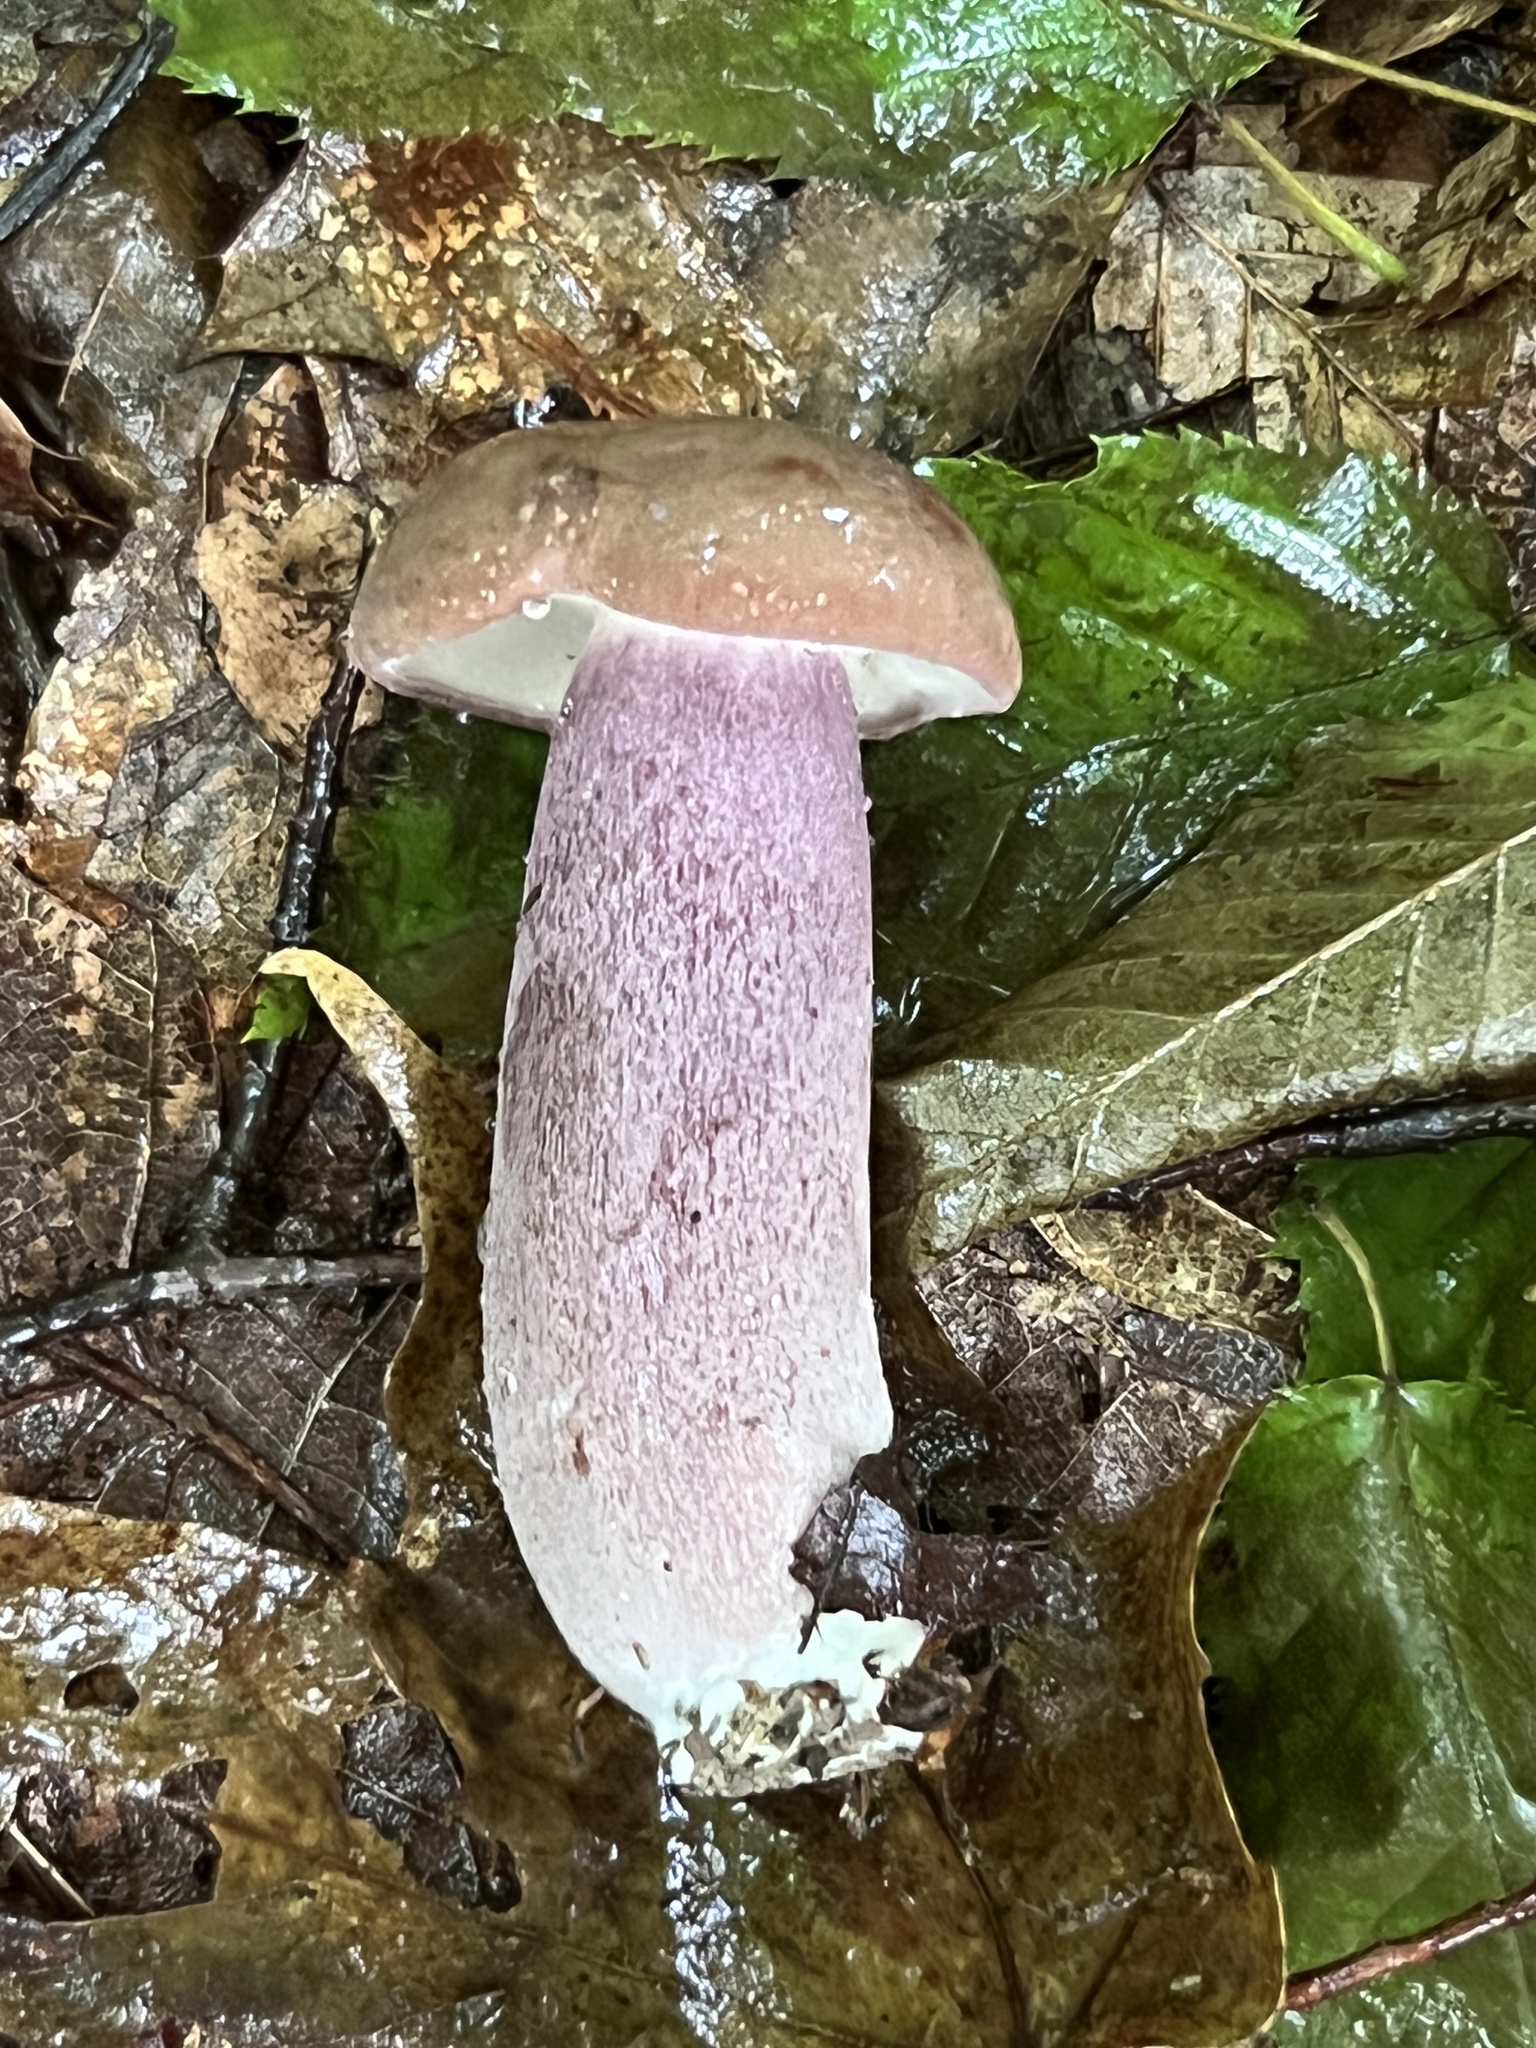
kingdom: Fungi
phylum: Basidiomycota
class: Agaricomycetes
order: Boletales
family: Boletaceae
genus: Tylopilus
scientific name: Tylopilus plumbeoviolaceus
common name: Violet gray bolete
